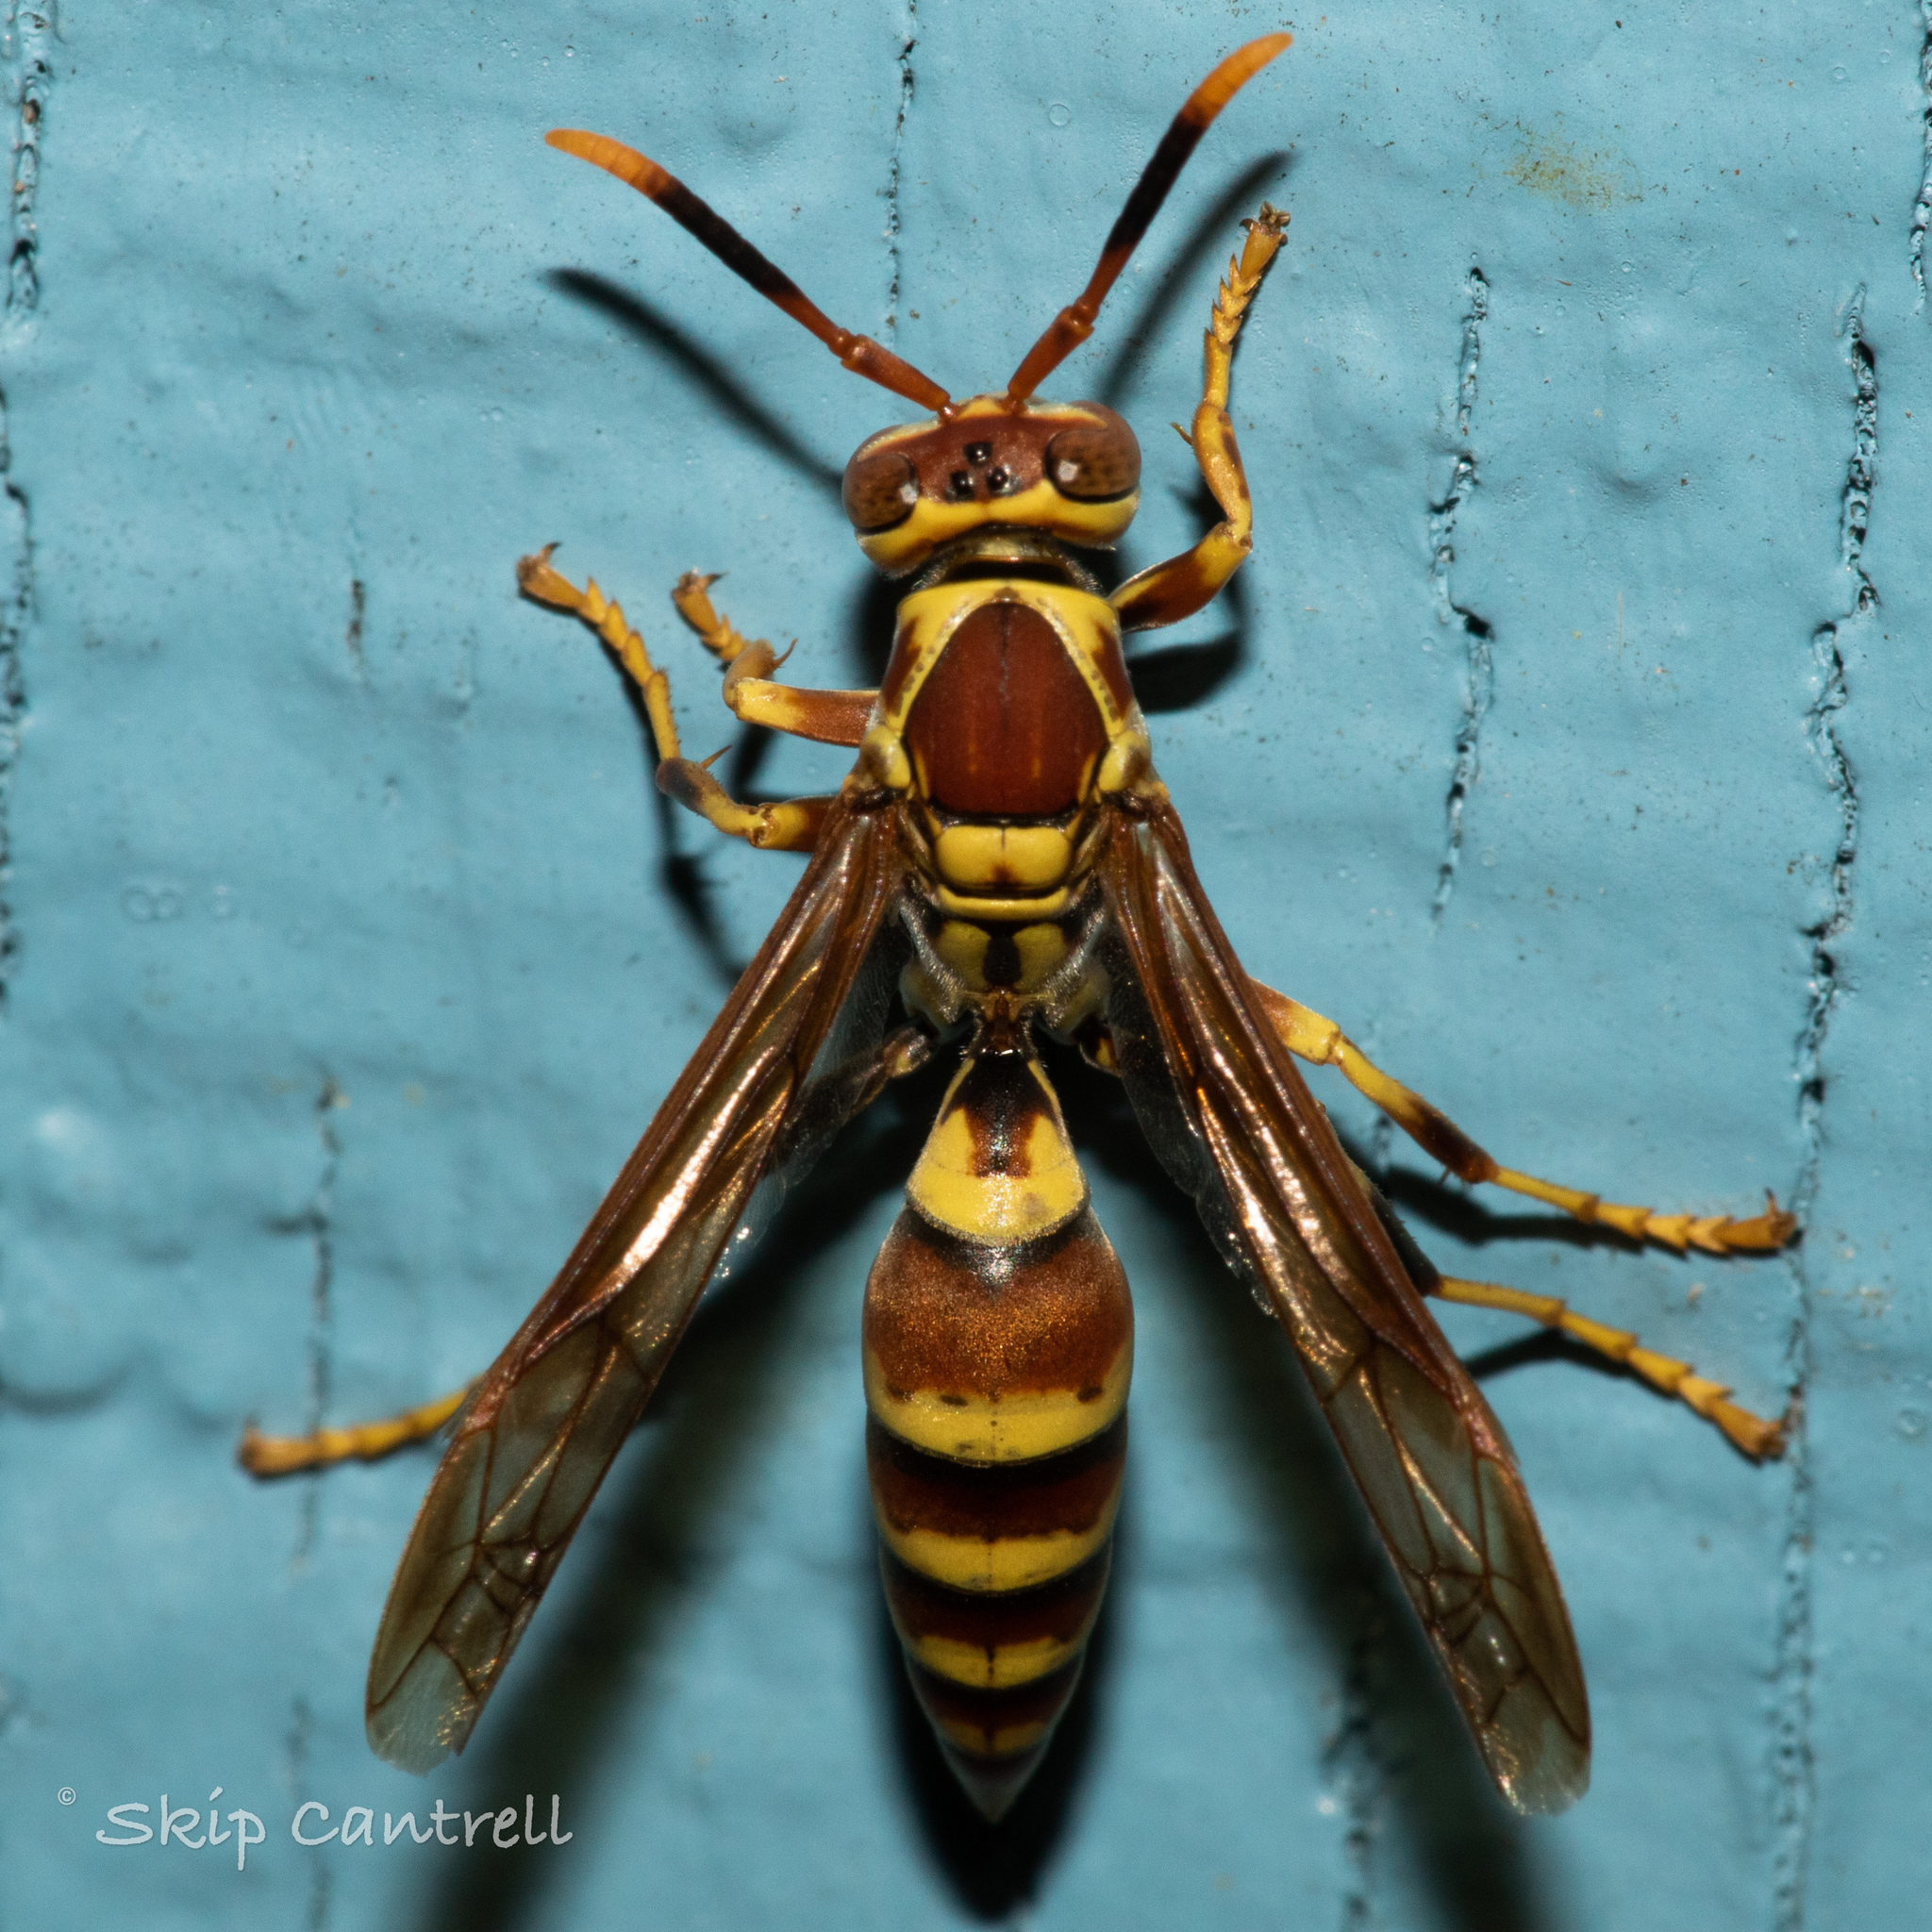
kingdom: Animalia
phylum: Arthropoda
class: Insecta
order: Hymenoptera
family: Eumenidae
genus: Polistes
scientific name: Polistes exclamans
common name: Paper wasp
